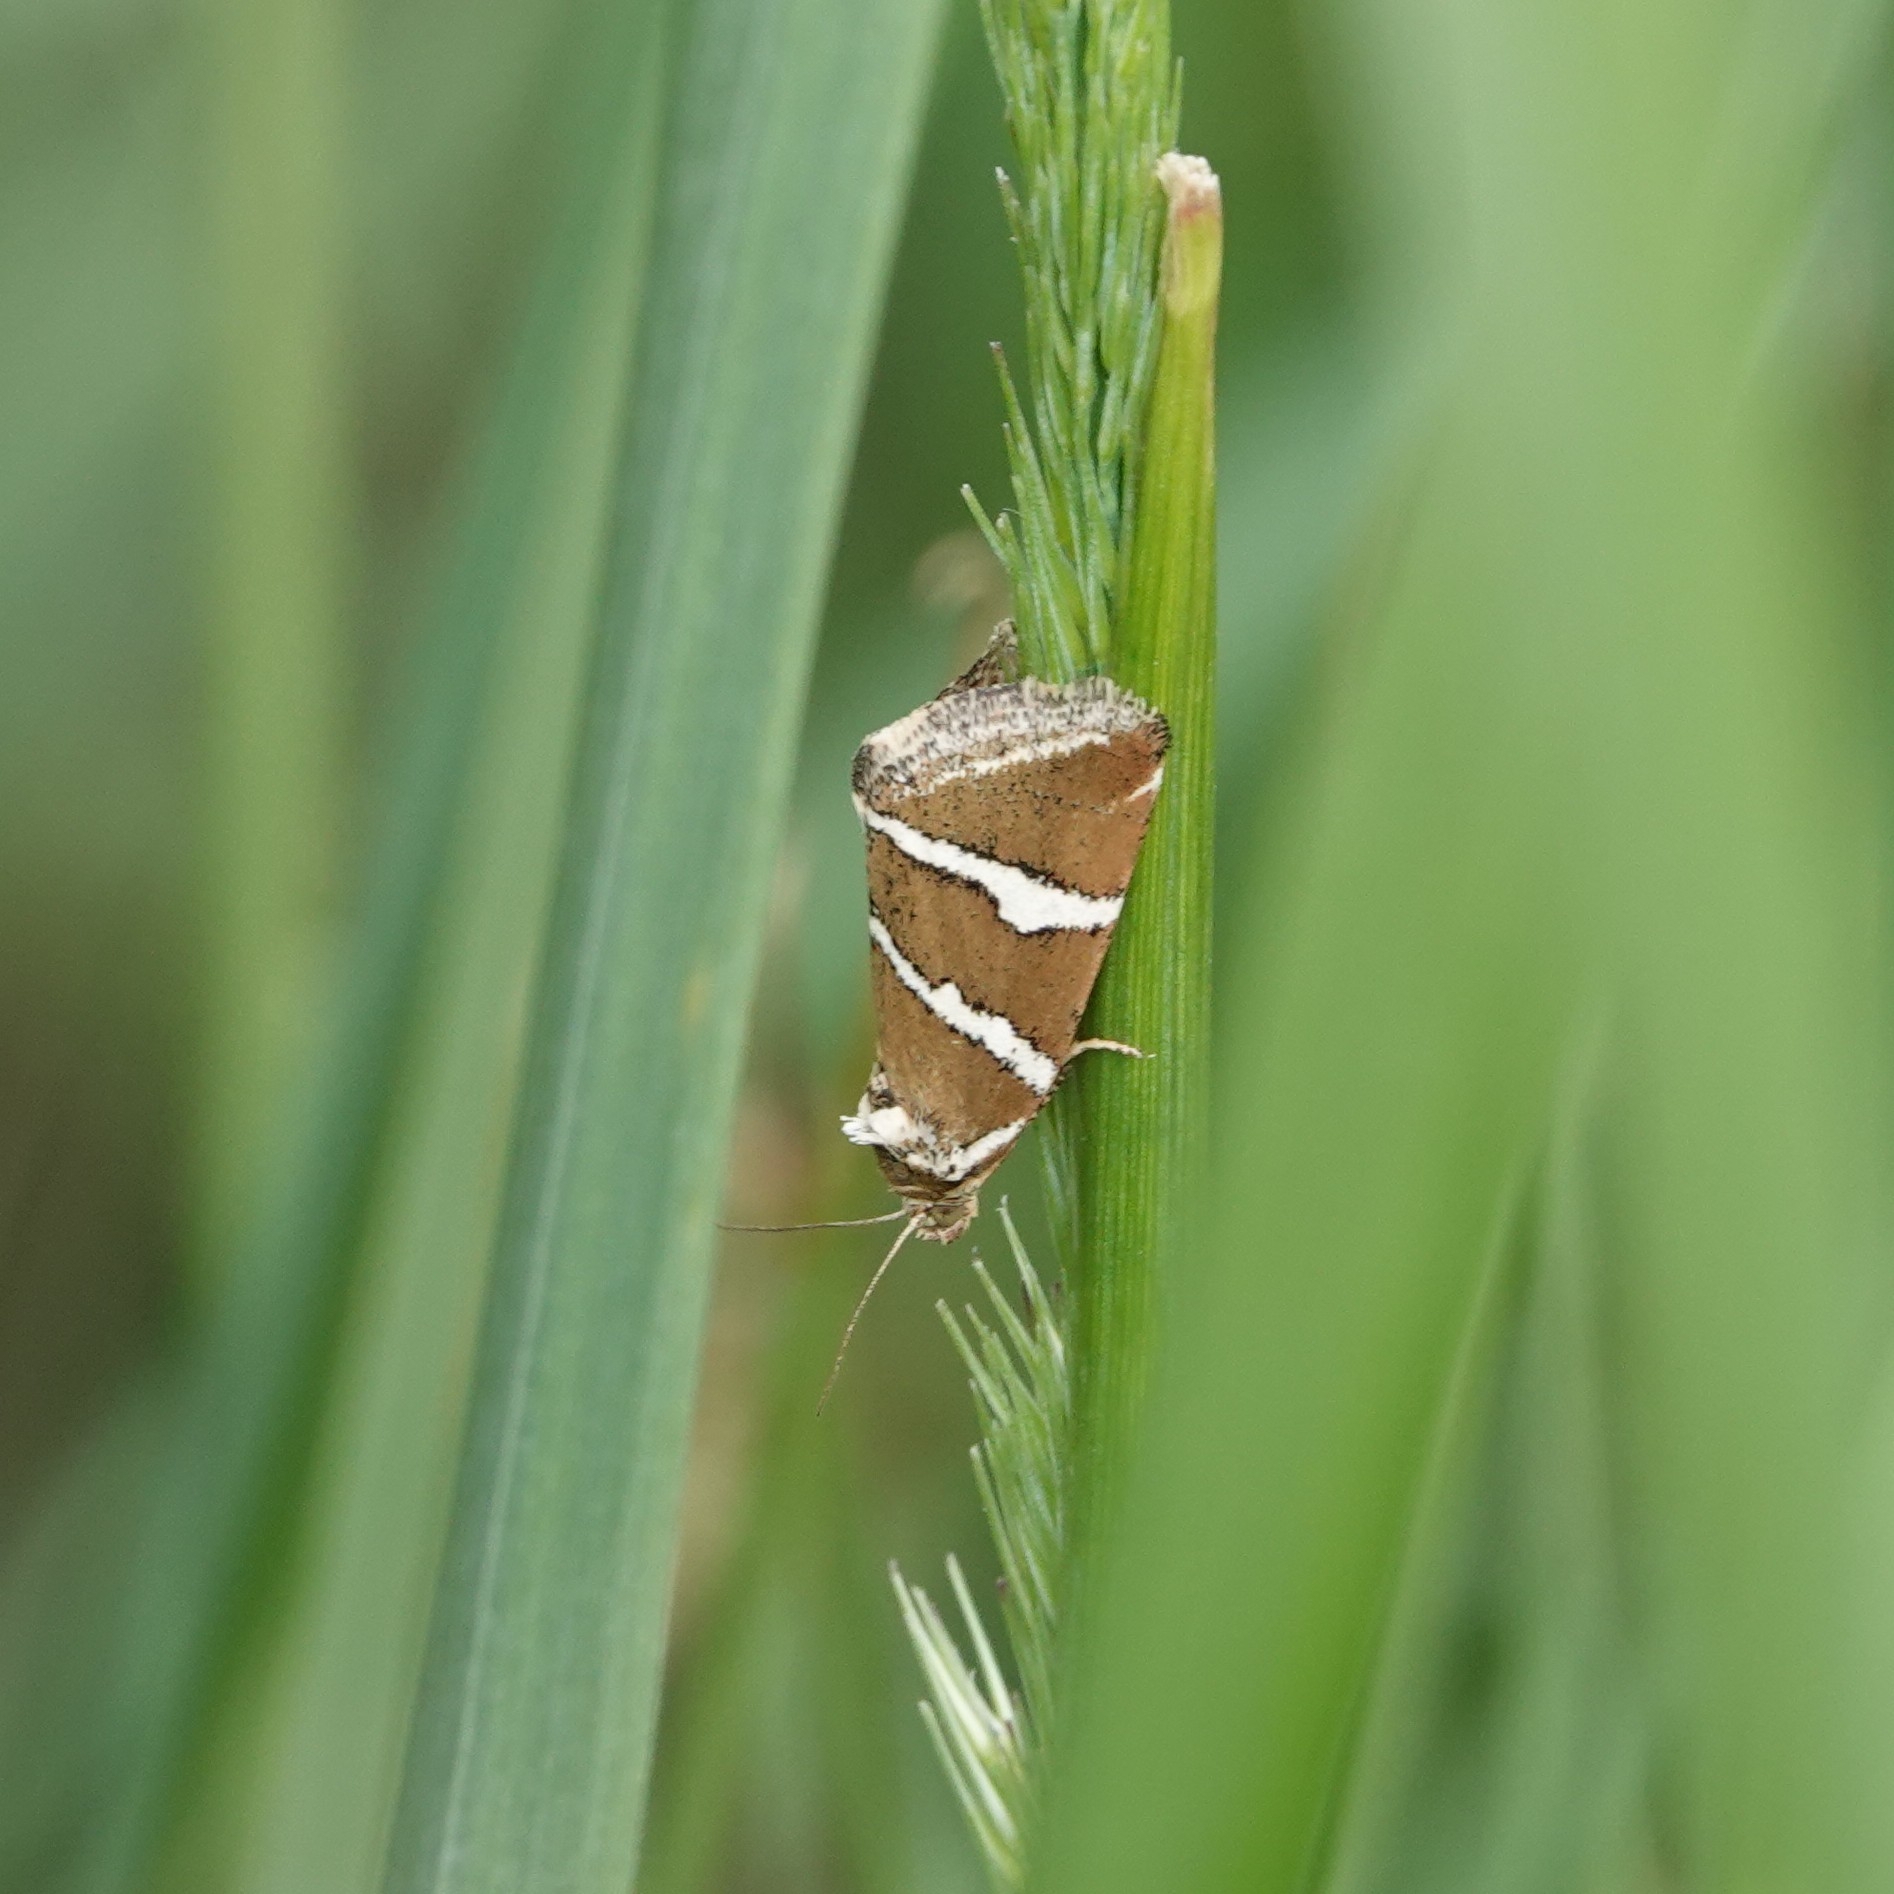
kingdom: Animalia
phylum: Arthropoda
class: Insecta
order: Lepidoptera
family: Noctuidae
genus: Deltote
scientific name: Deltote bankiana
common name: Silver barred
